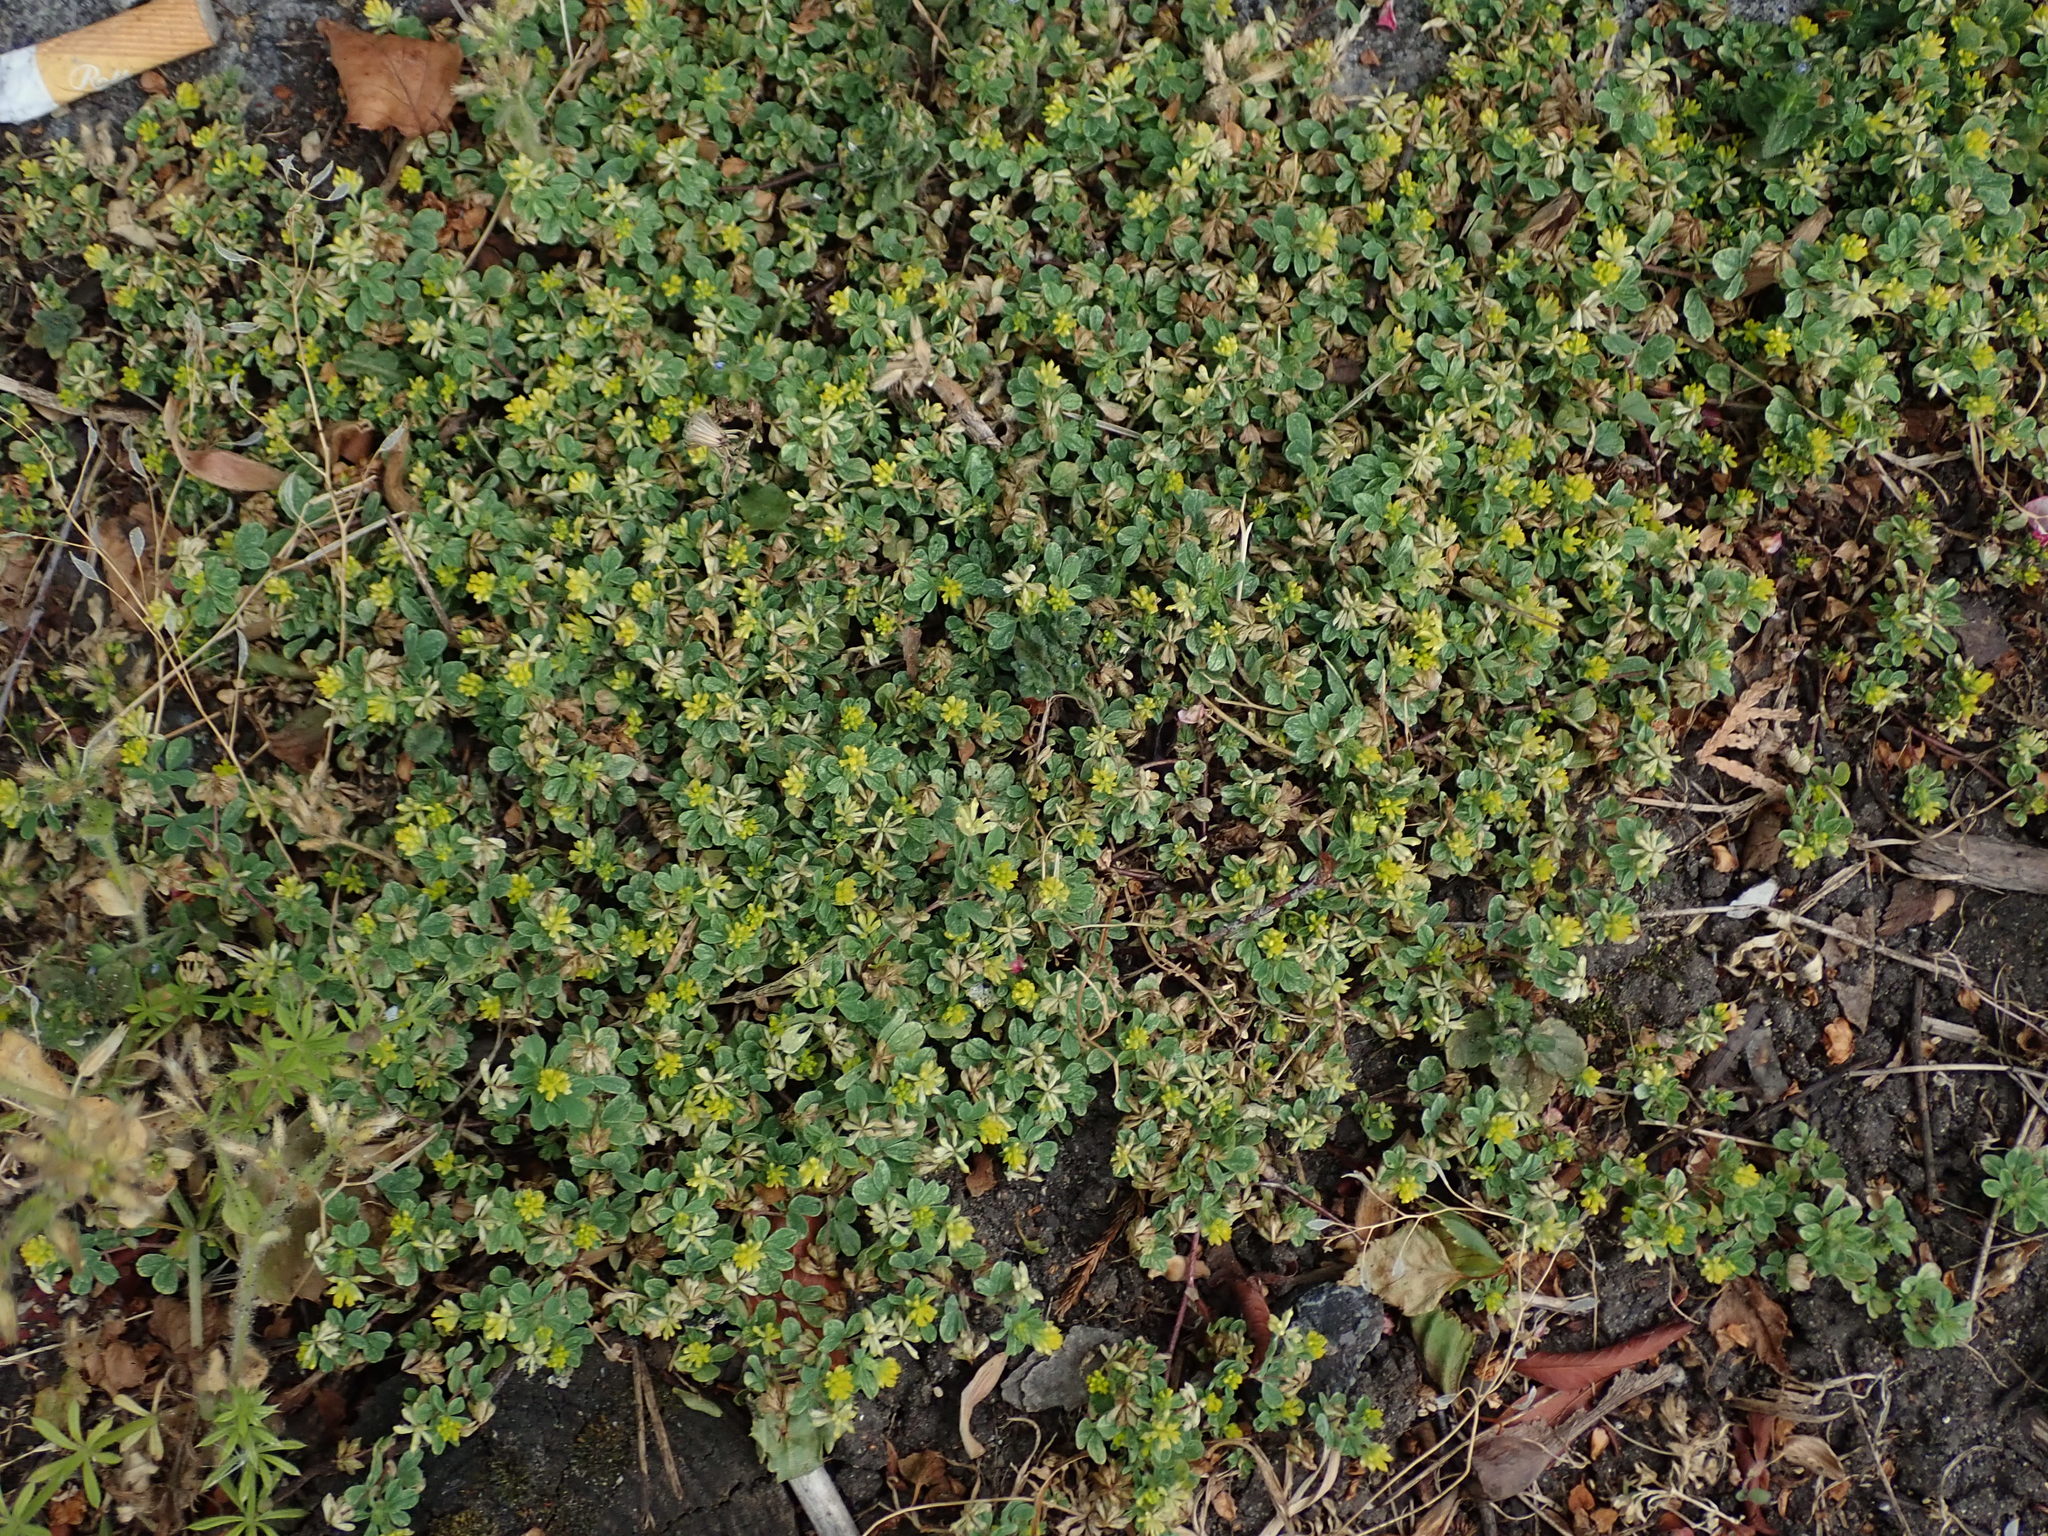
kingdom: Plantae
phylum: Tracheophyta
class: Magnoliopsida
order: Fabales
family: Fabaceae
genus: Trifolium
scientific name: Trifolium dubium
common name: Suckling clover
